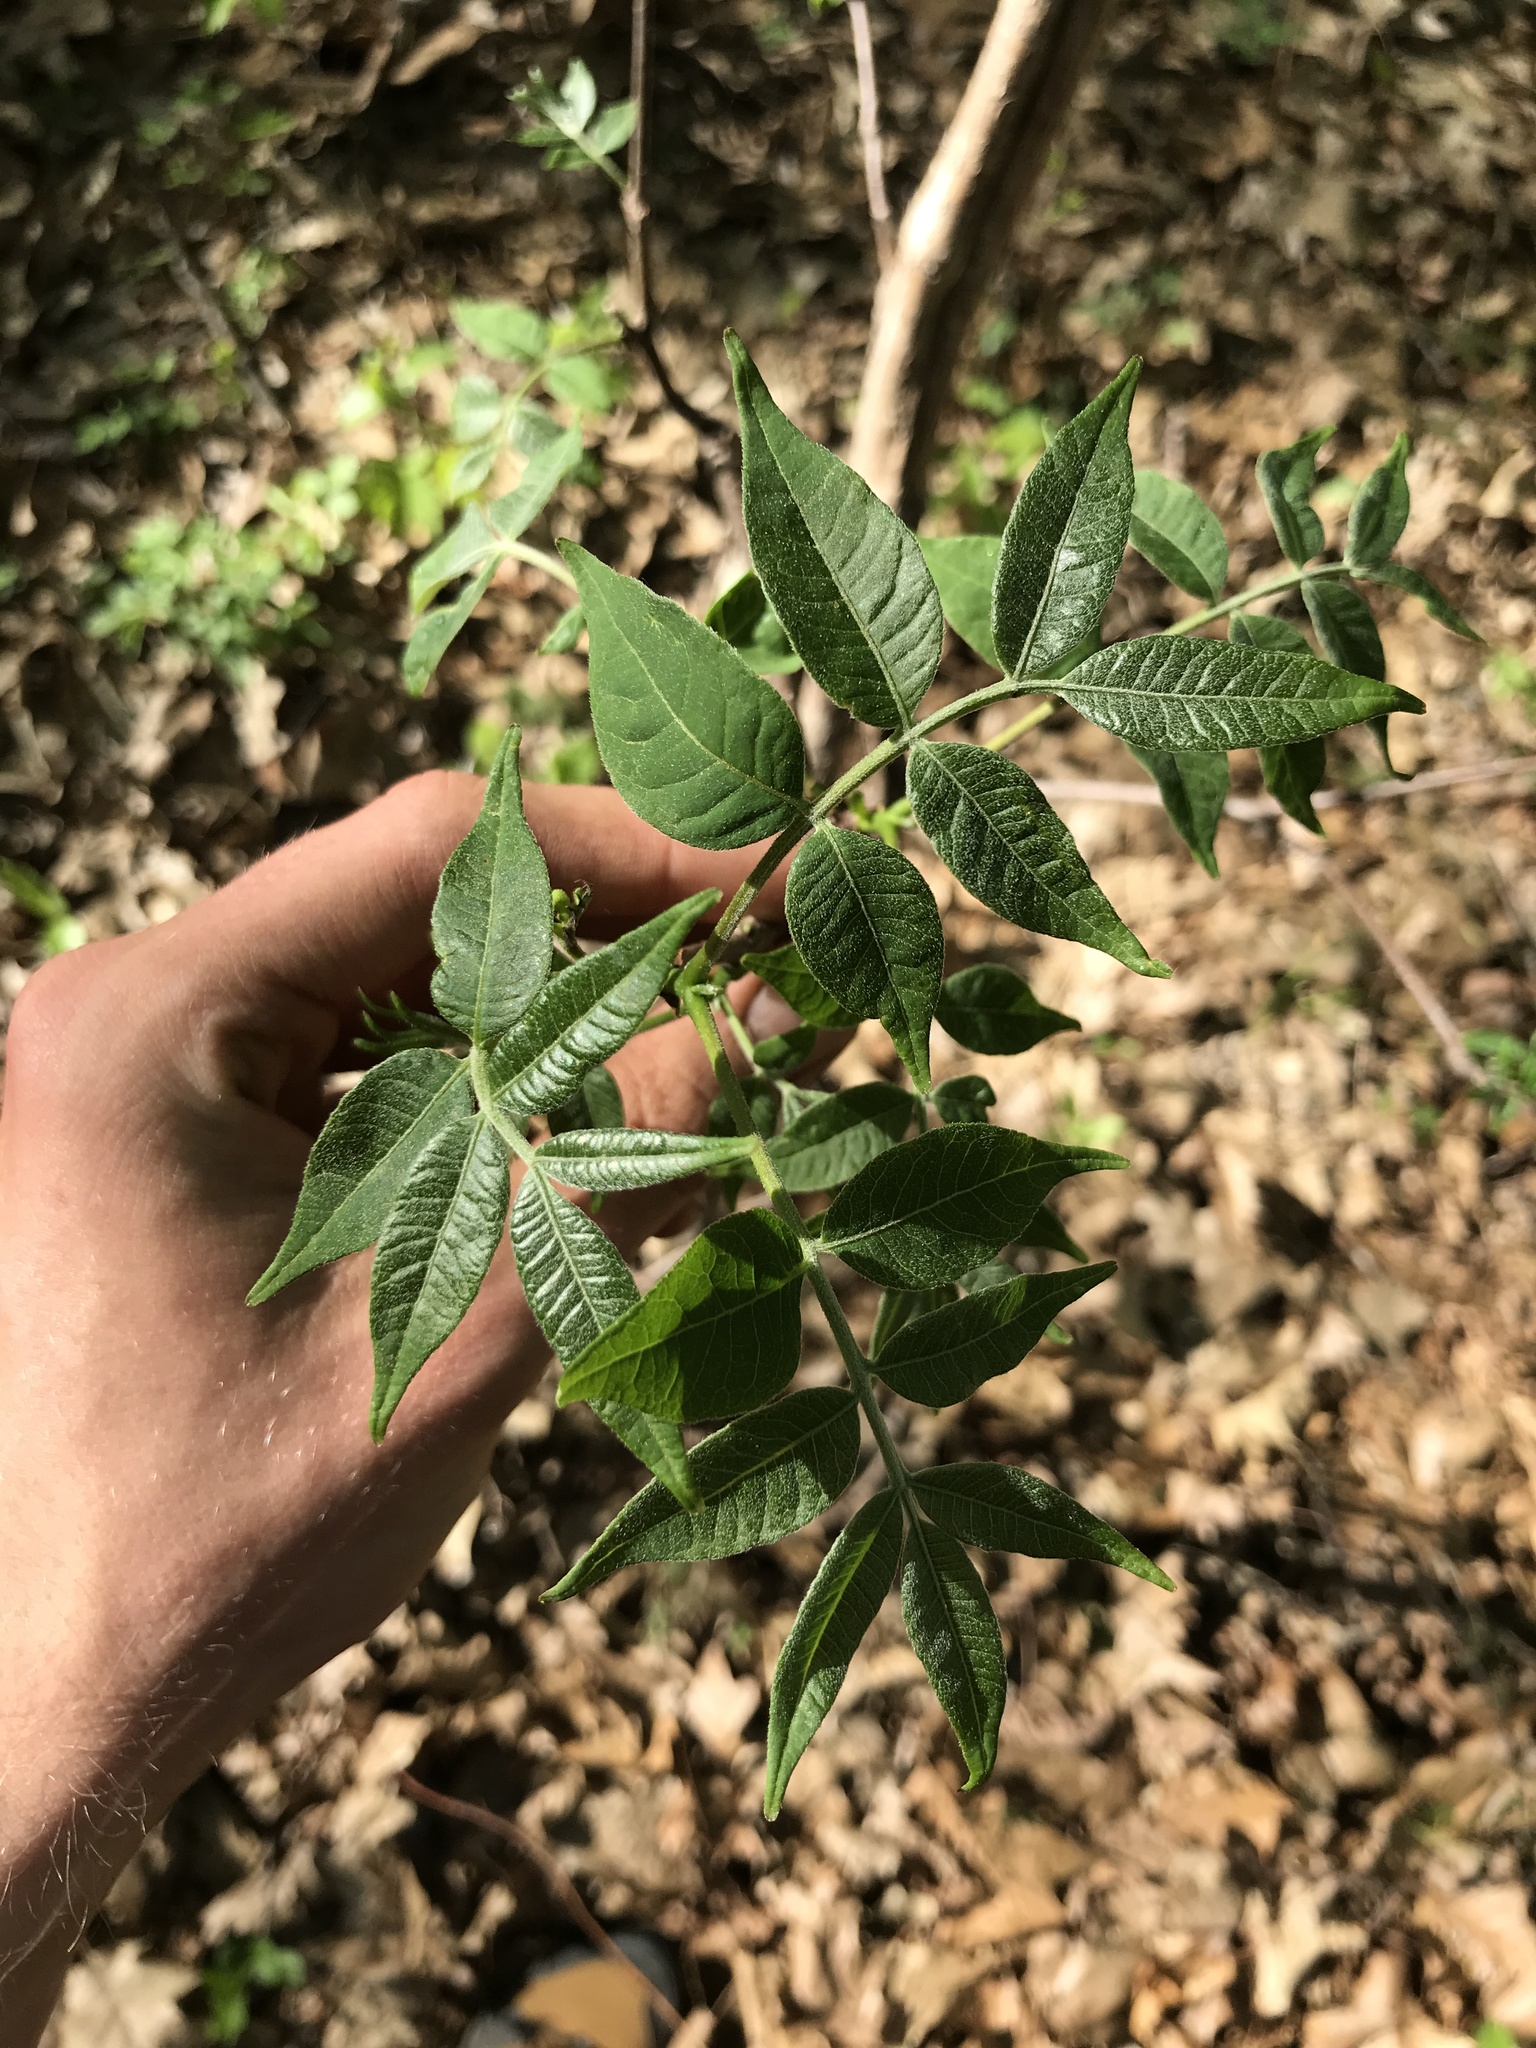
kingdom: Plantae
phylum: Tracheophyta
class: Magnoliopsida
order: Sapindales
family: Rutaceae
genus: Phellodendron
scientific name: Phellodendron amurense
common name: Amur corktree
